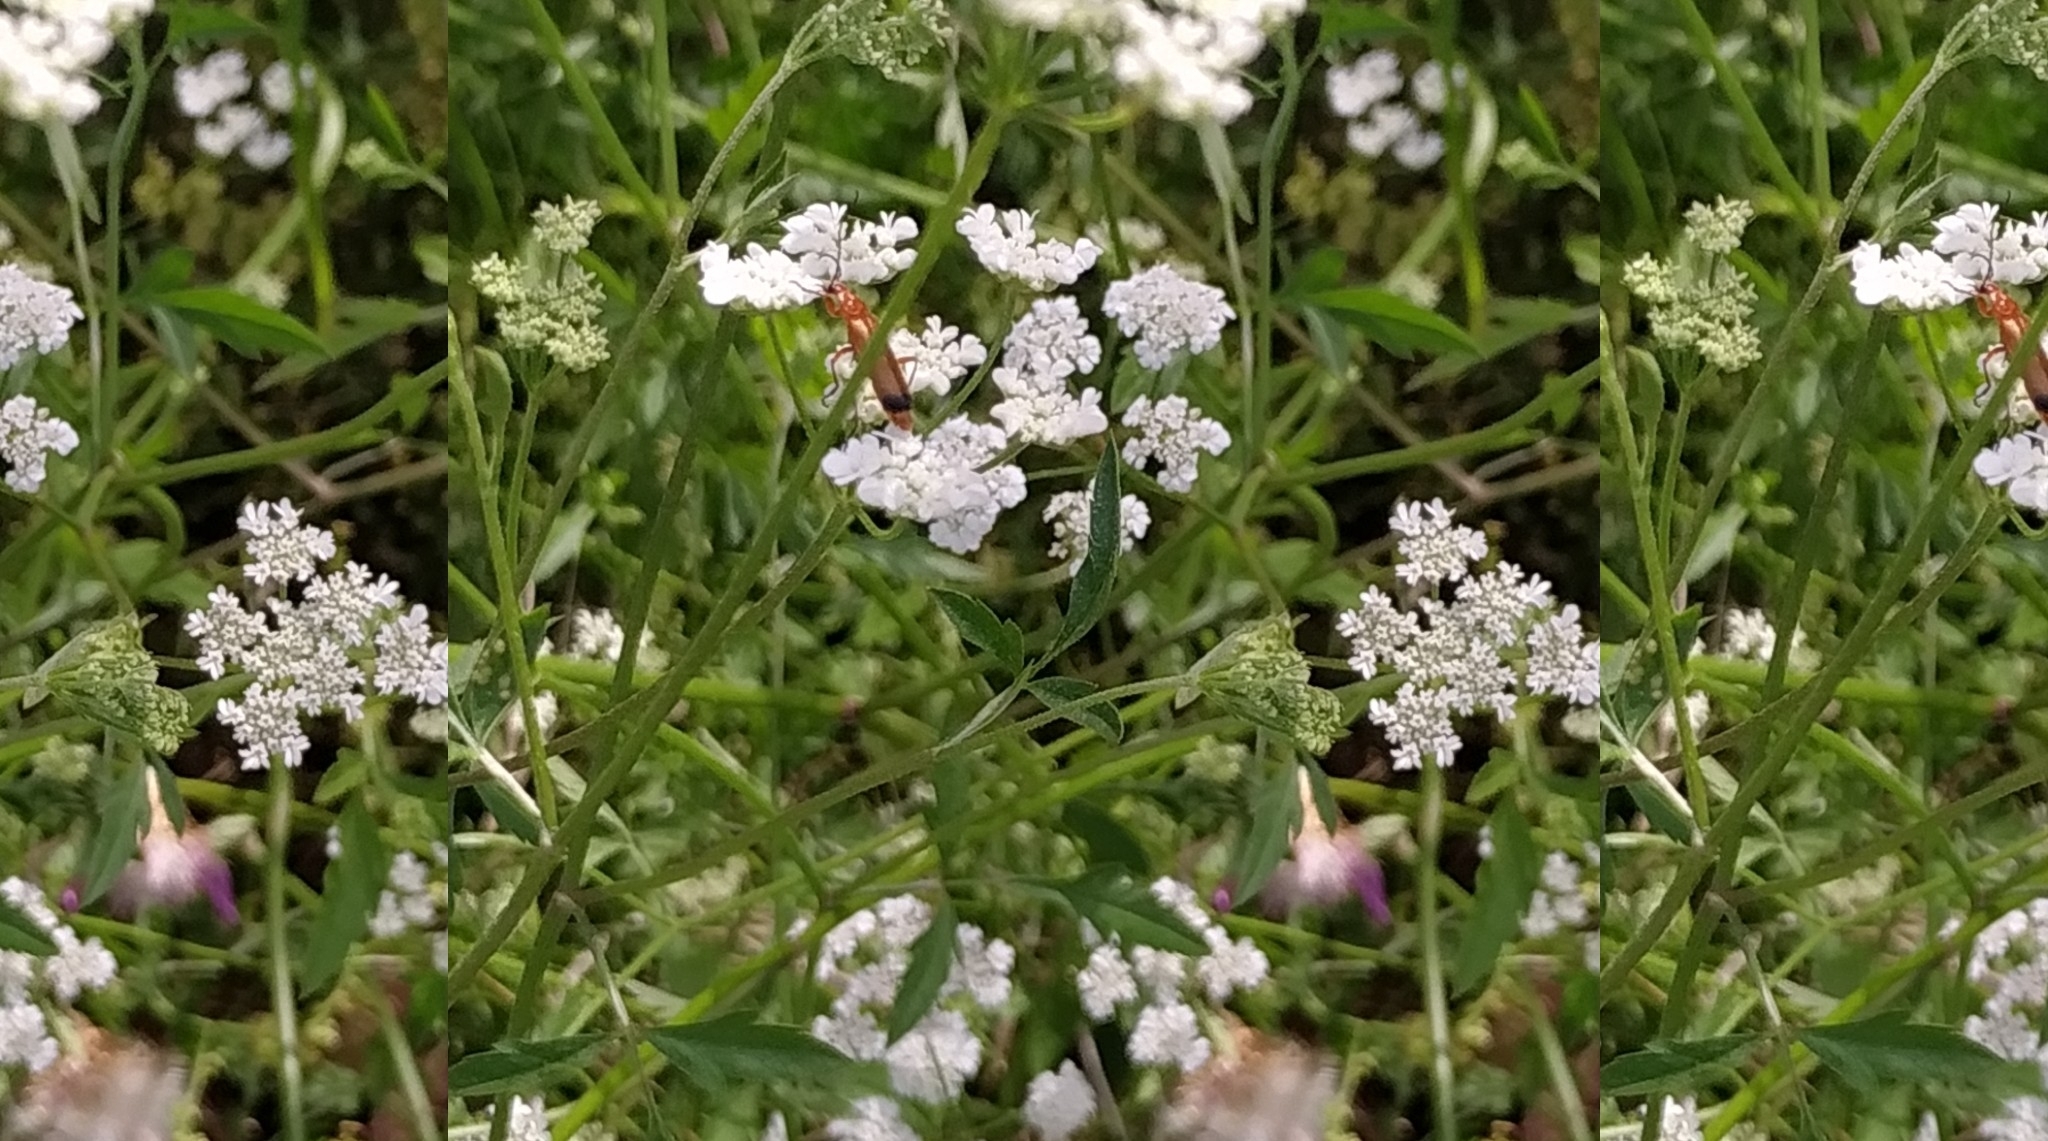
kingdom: Animalia
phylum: Arthropoda
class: Insecta
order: Coleoptera
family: Cantharidae
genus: Rhagonycha
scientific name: Rhagonycha fulva
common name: Common red soldier beetle
